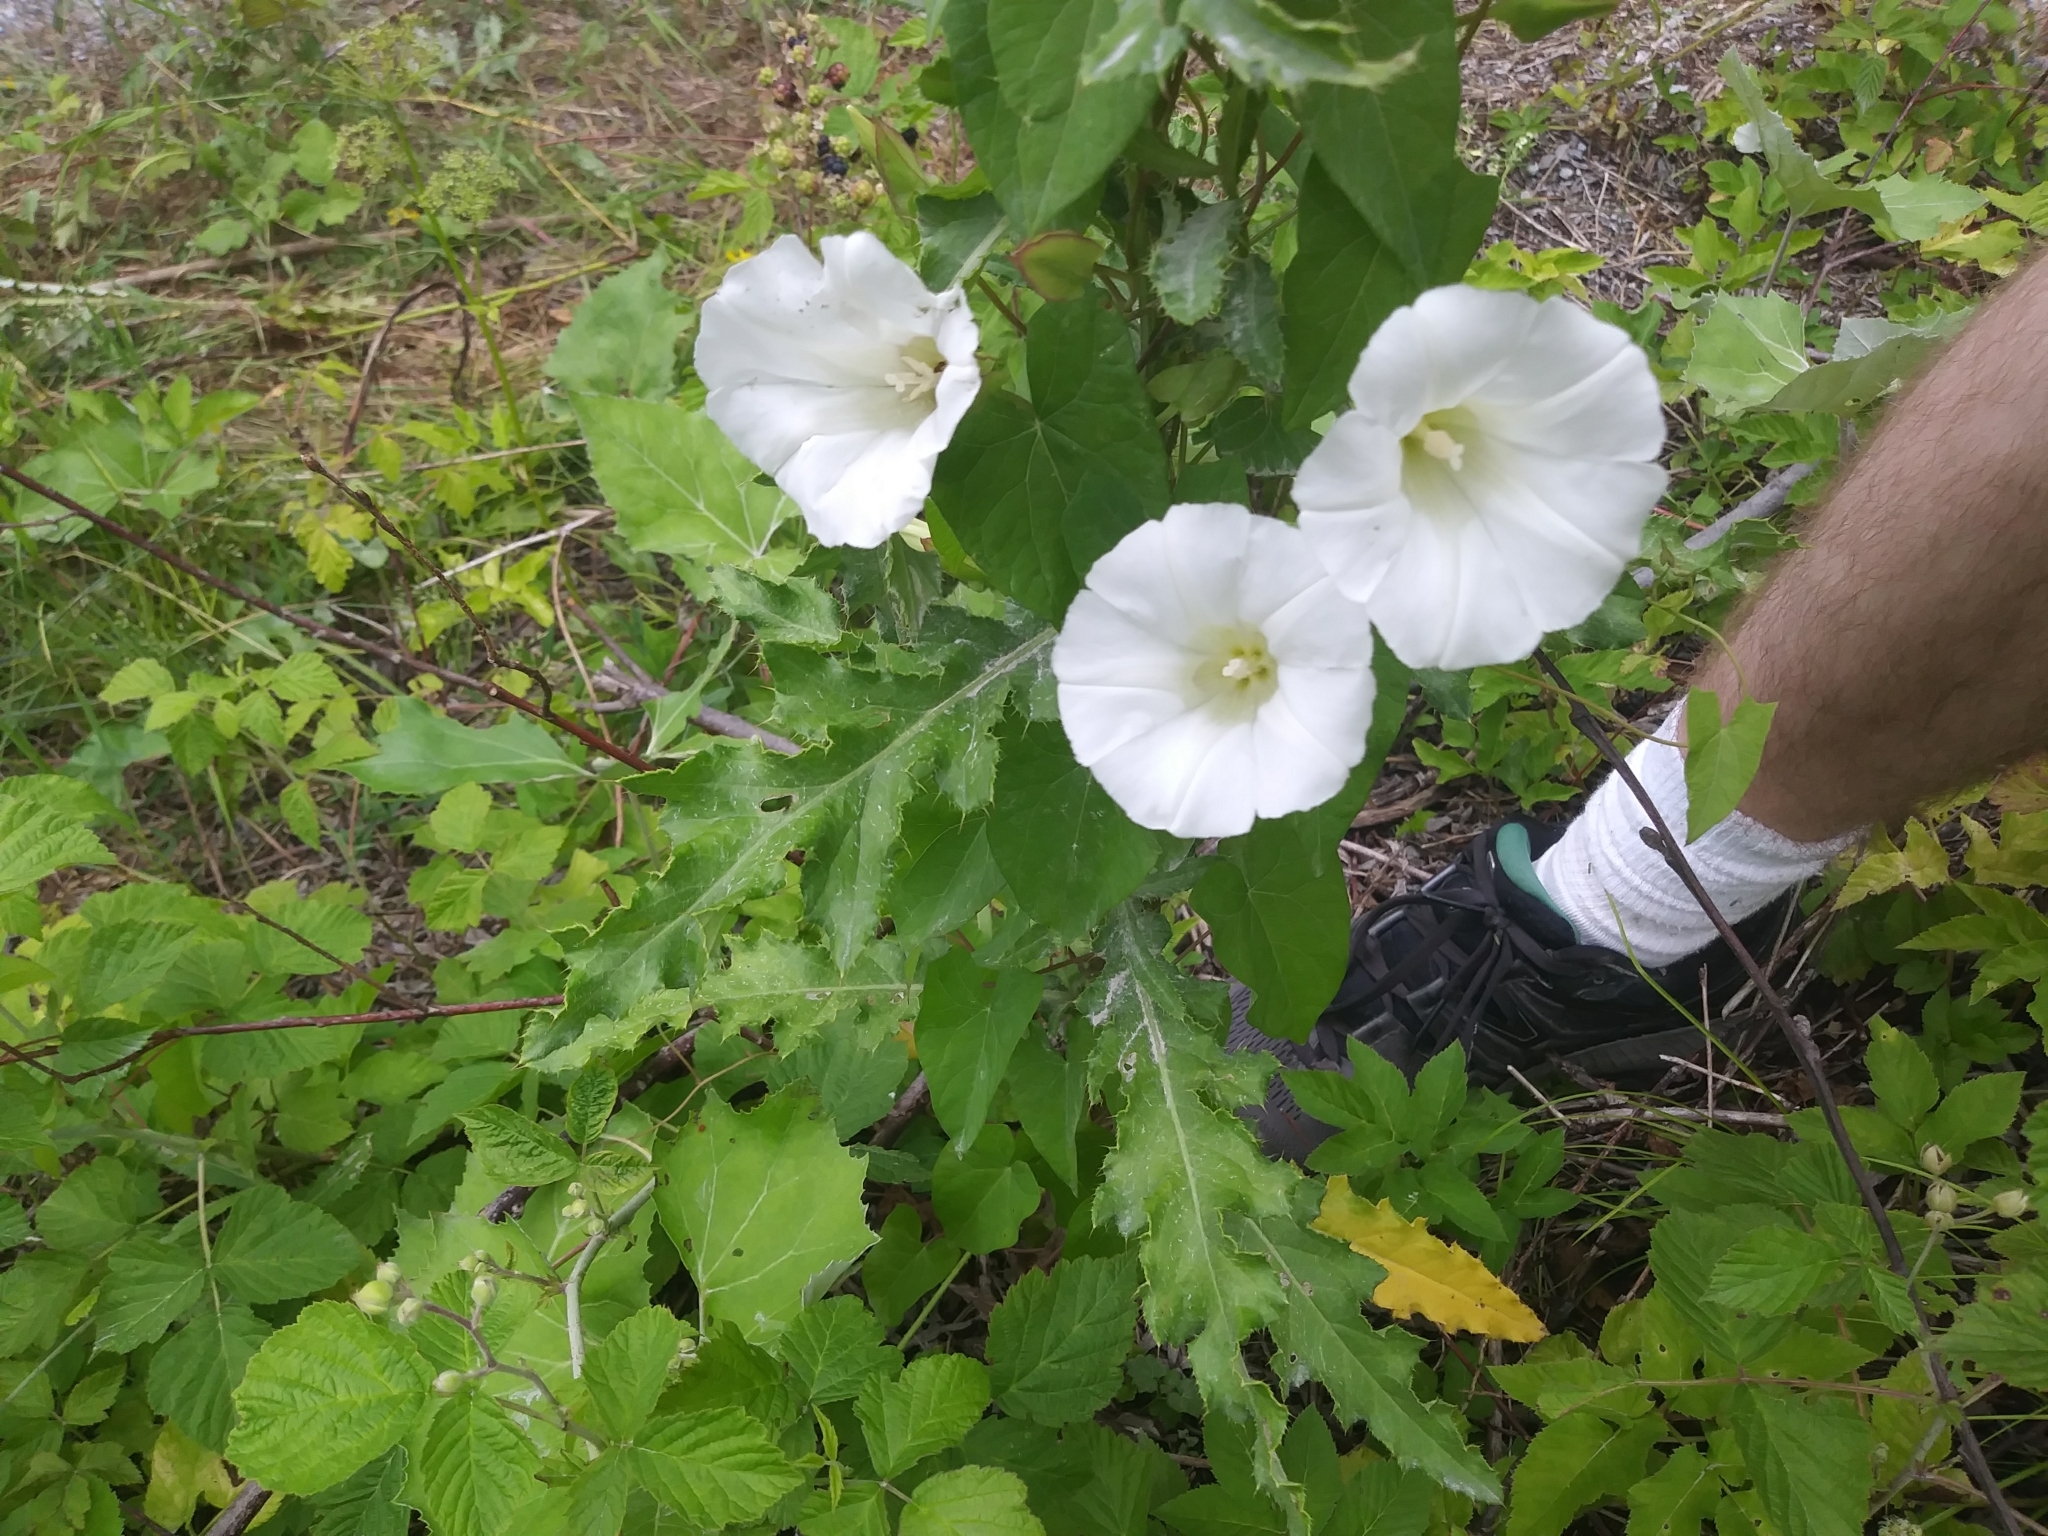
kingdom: Plantae
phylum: Tracheophyta
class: Magnoliopsida
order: Solanales
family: Convolvulaceae
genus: Calystegia
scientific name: Calystegia sepium
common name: Hedge bindweed
